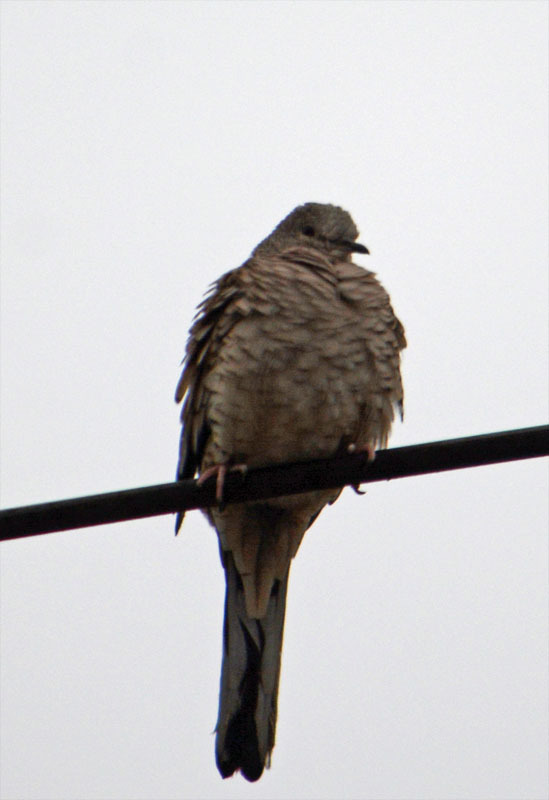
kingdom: Animalia
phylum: Chordata
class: Aves
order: Columbiformes
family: Columbidae
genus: Columbina
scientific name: Columbina inca
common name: Inca dove
